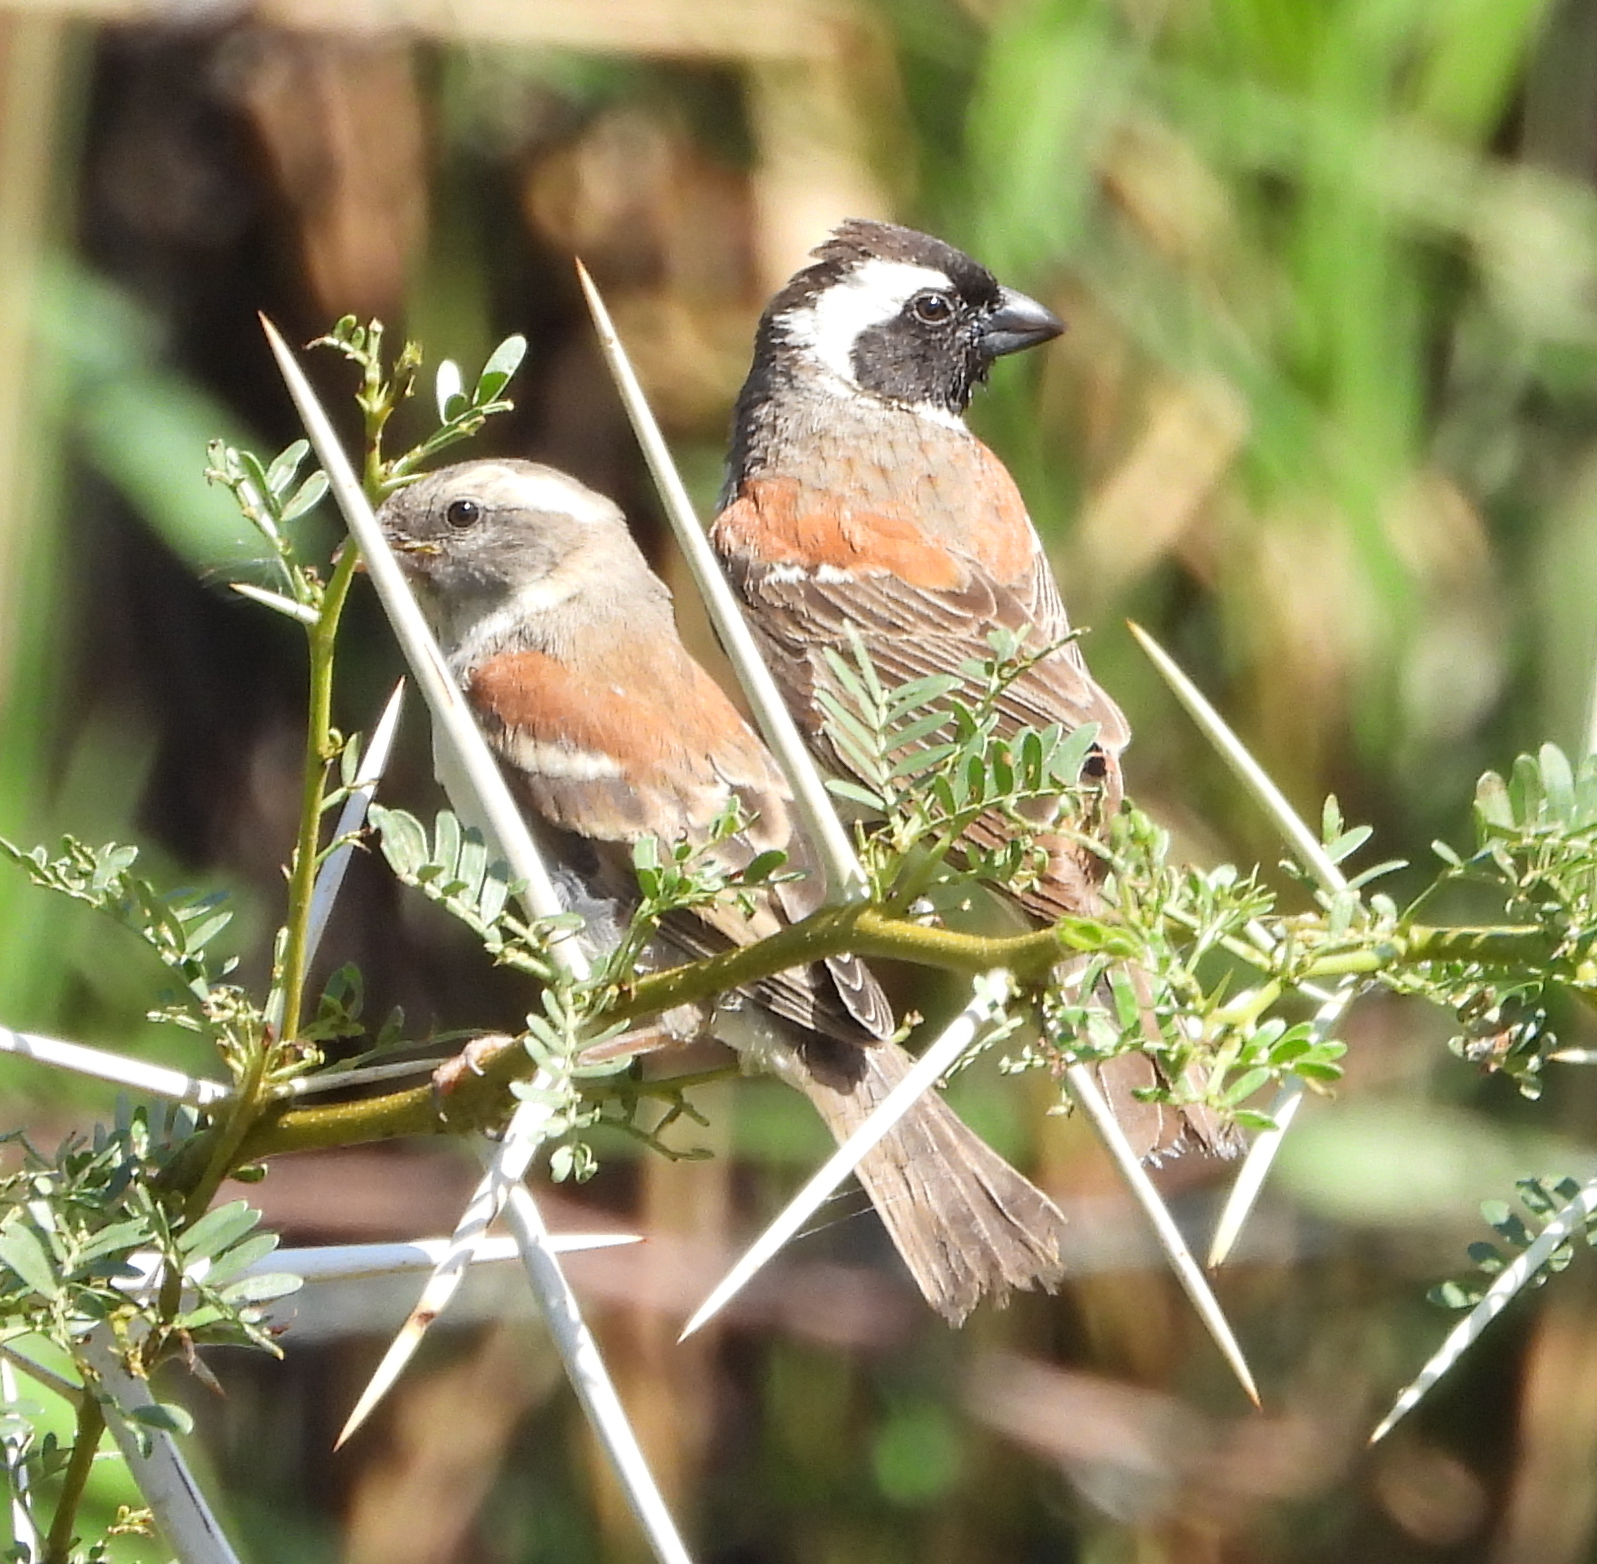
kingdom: Animalia
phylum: Chordata
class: Aves
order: Passeriformes
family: Passeridae
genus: Passer
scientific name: Passer melanurus
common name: Cape sparrow
